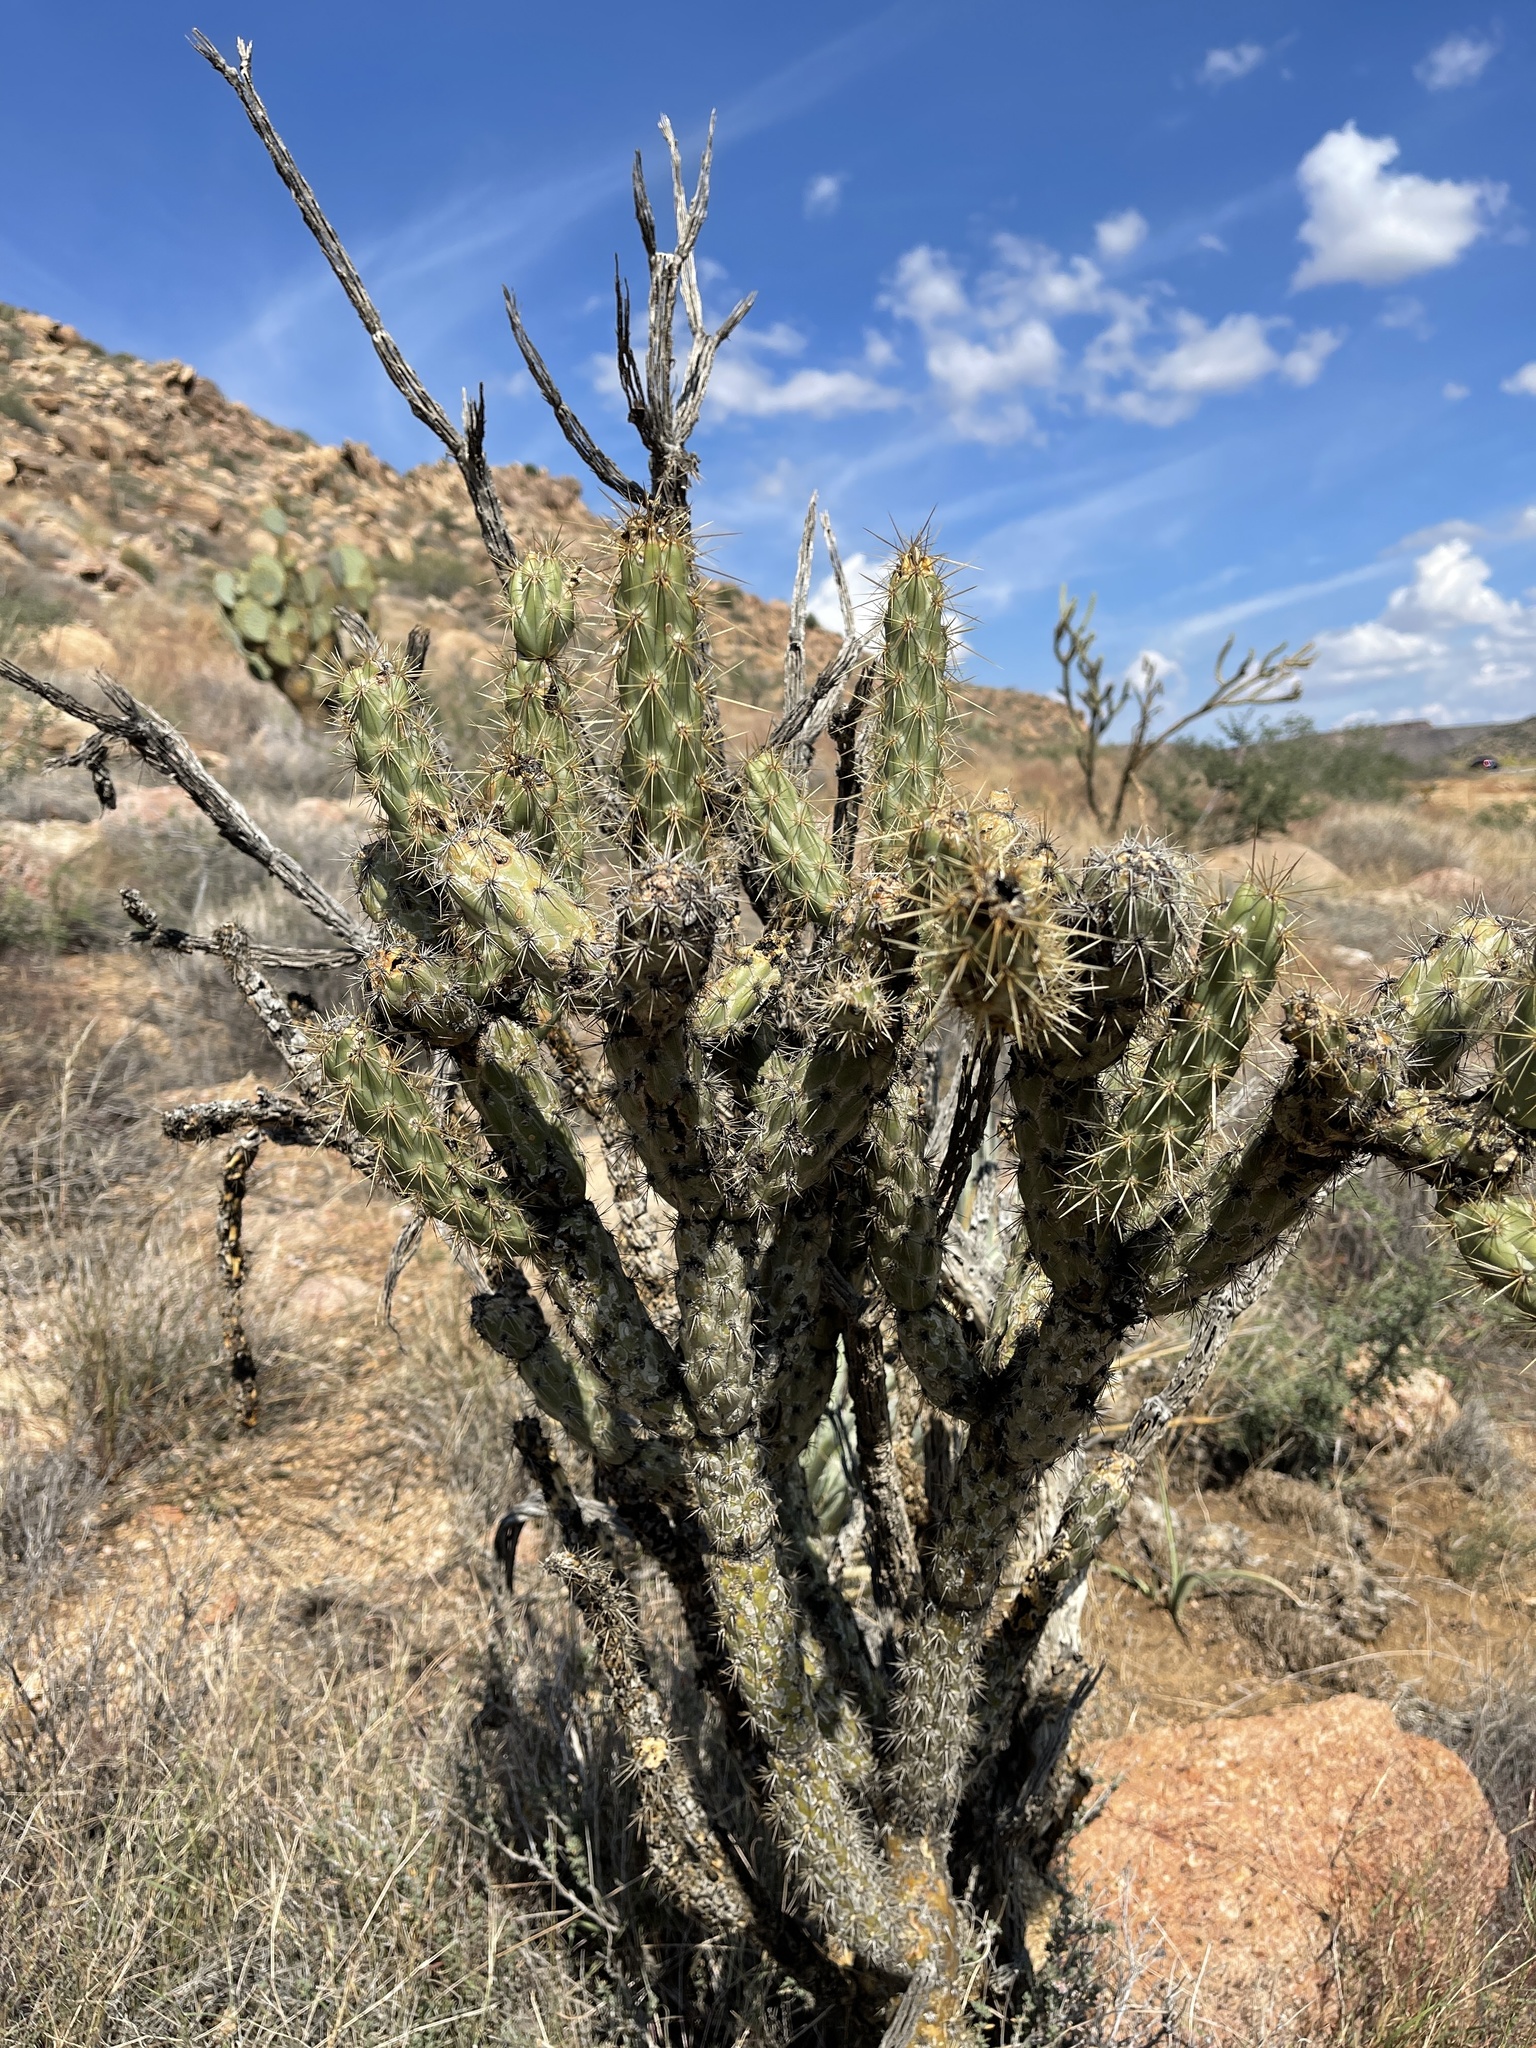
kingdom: Plantae
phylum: Tracheophyta
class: Magnoliopsida
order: Caryophyllales
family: Cactaceae
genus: Cylindropuntia
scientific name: Cylindropuntia acanthocarpa
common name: Buckhorn cholla
